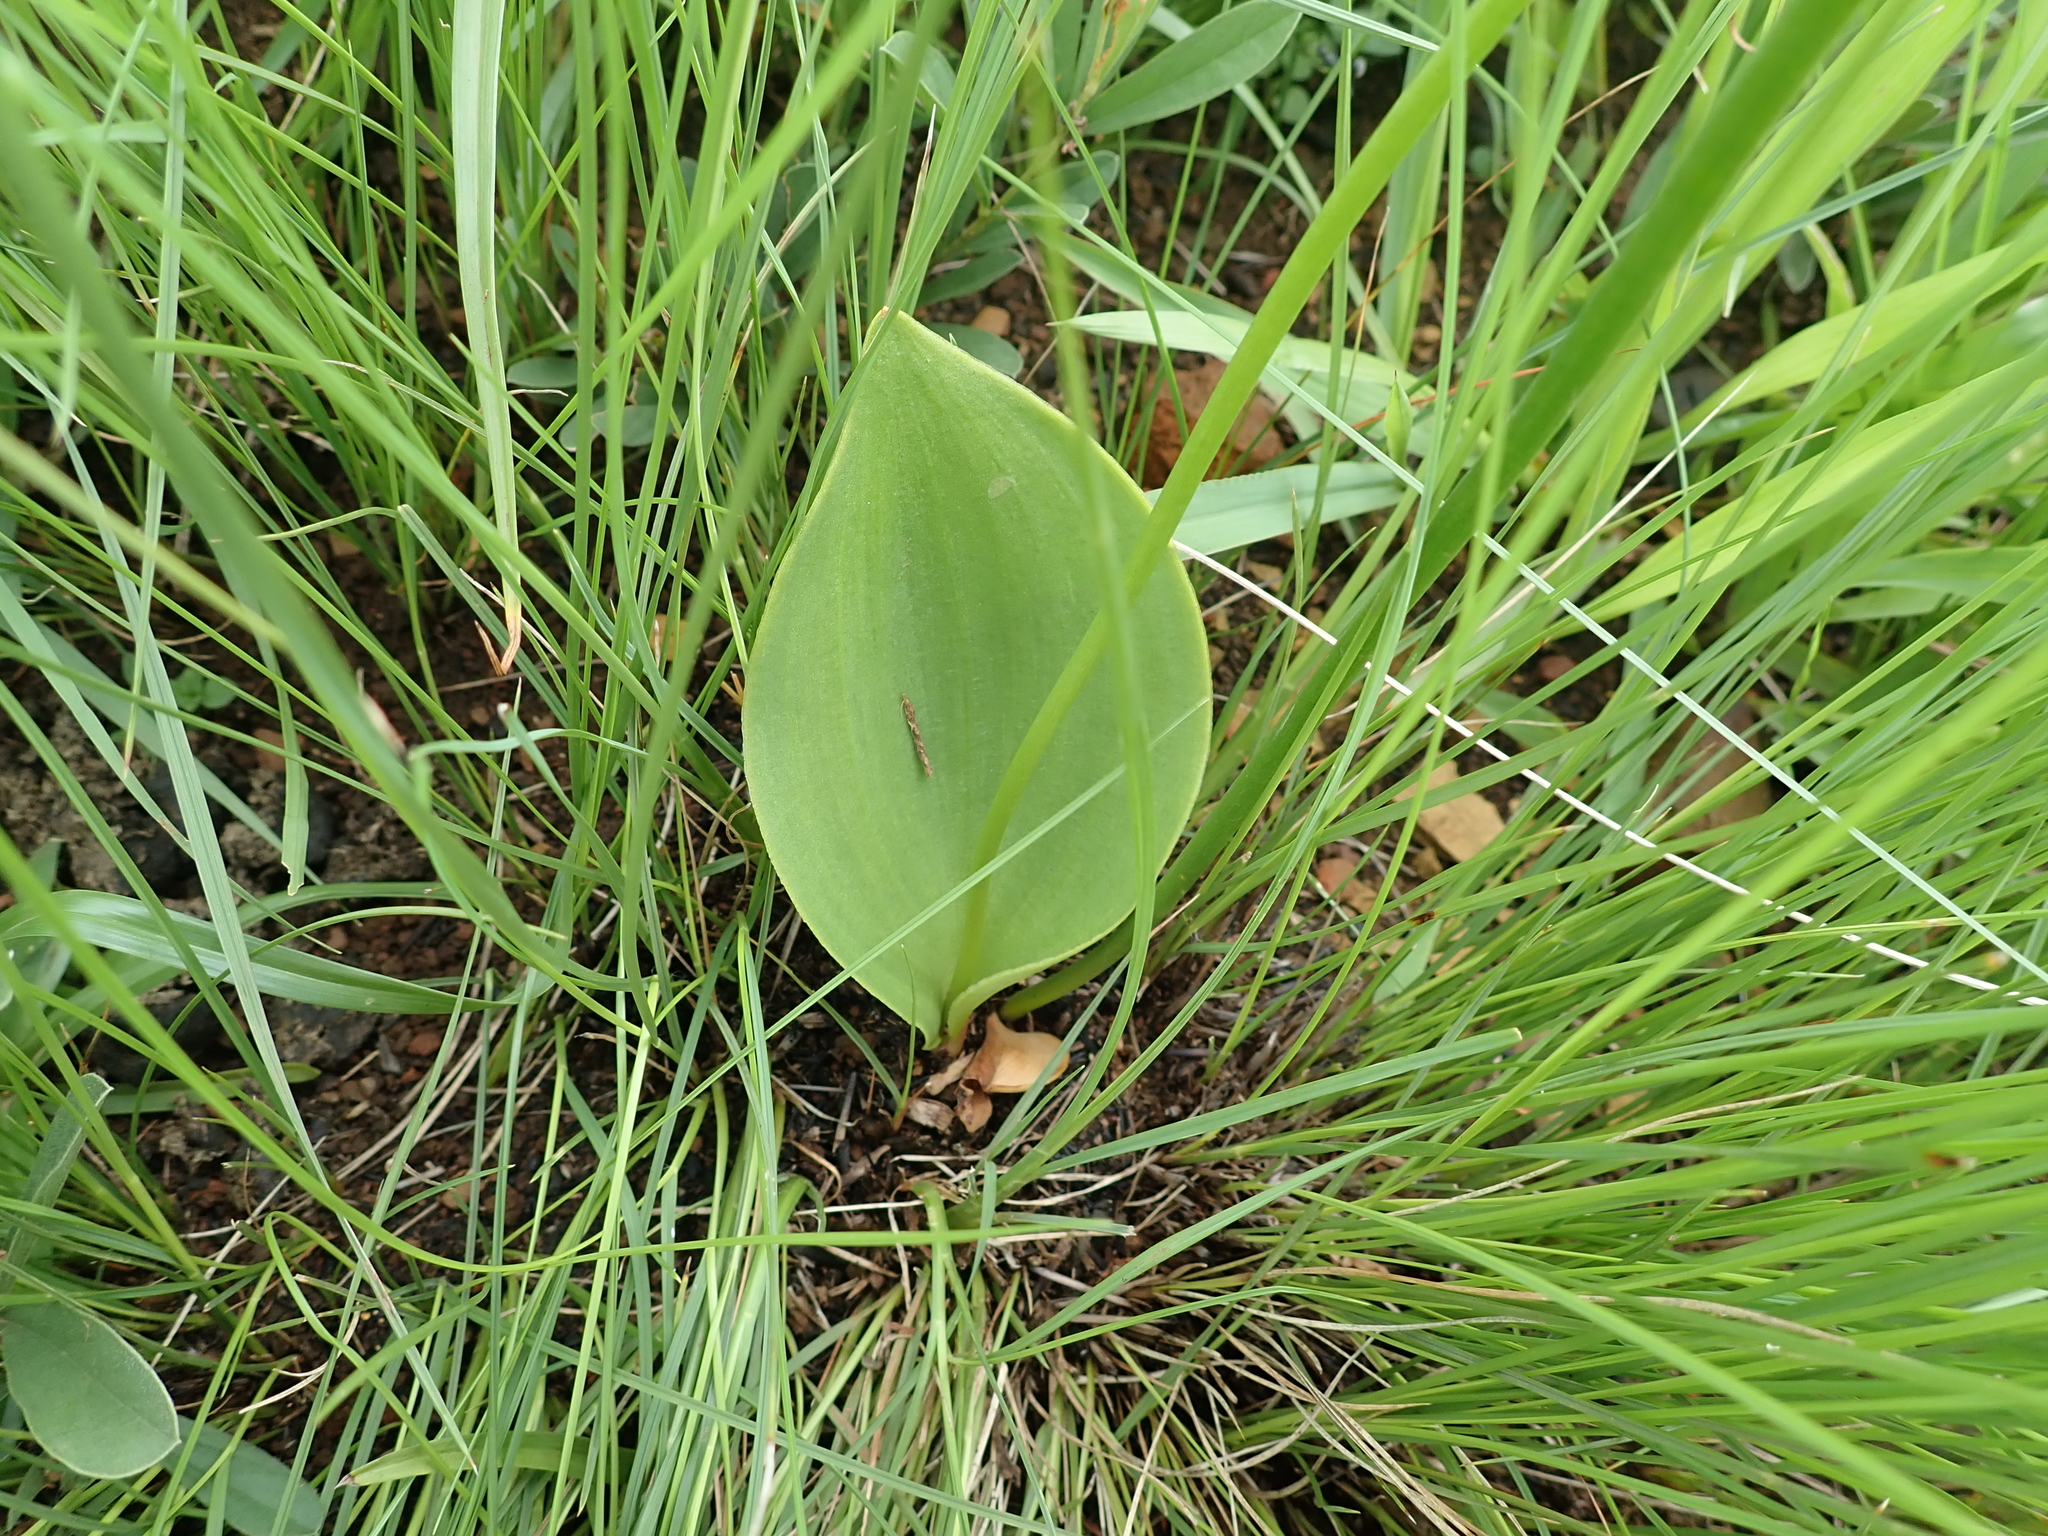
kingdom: Plantae
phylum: Tracheophyta
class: Liliopsida
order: Asparagales
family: Asparagaceae
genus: Eriospermum
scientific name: Eriospermum mackenii
